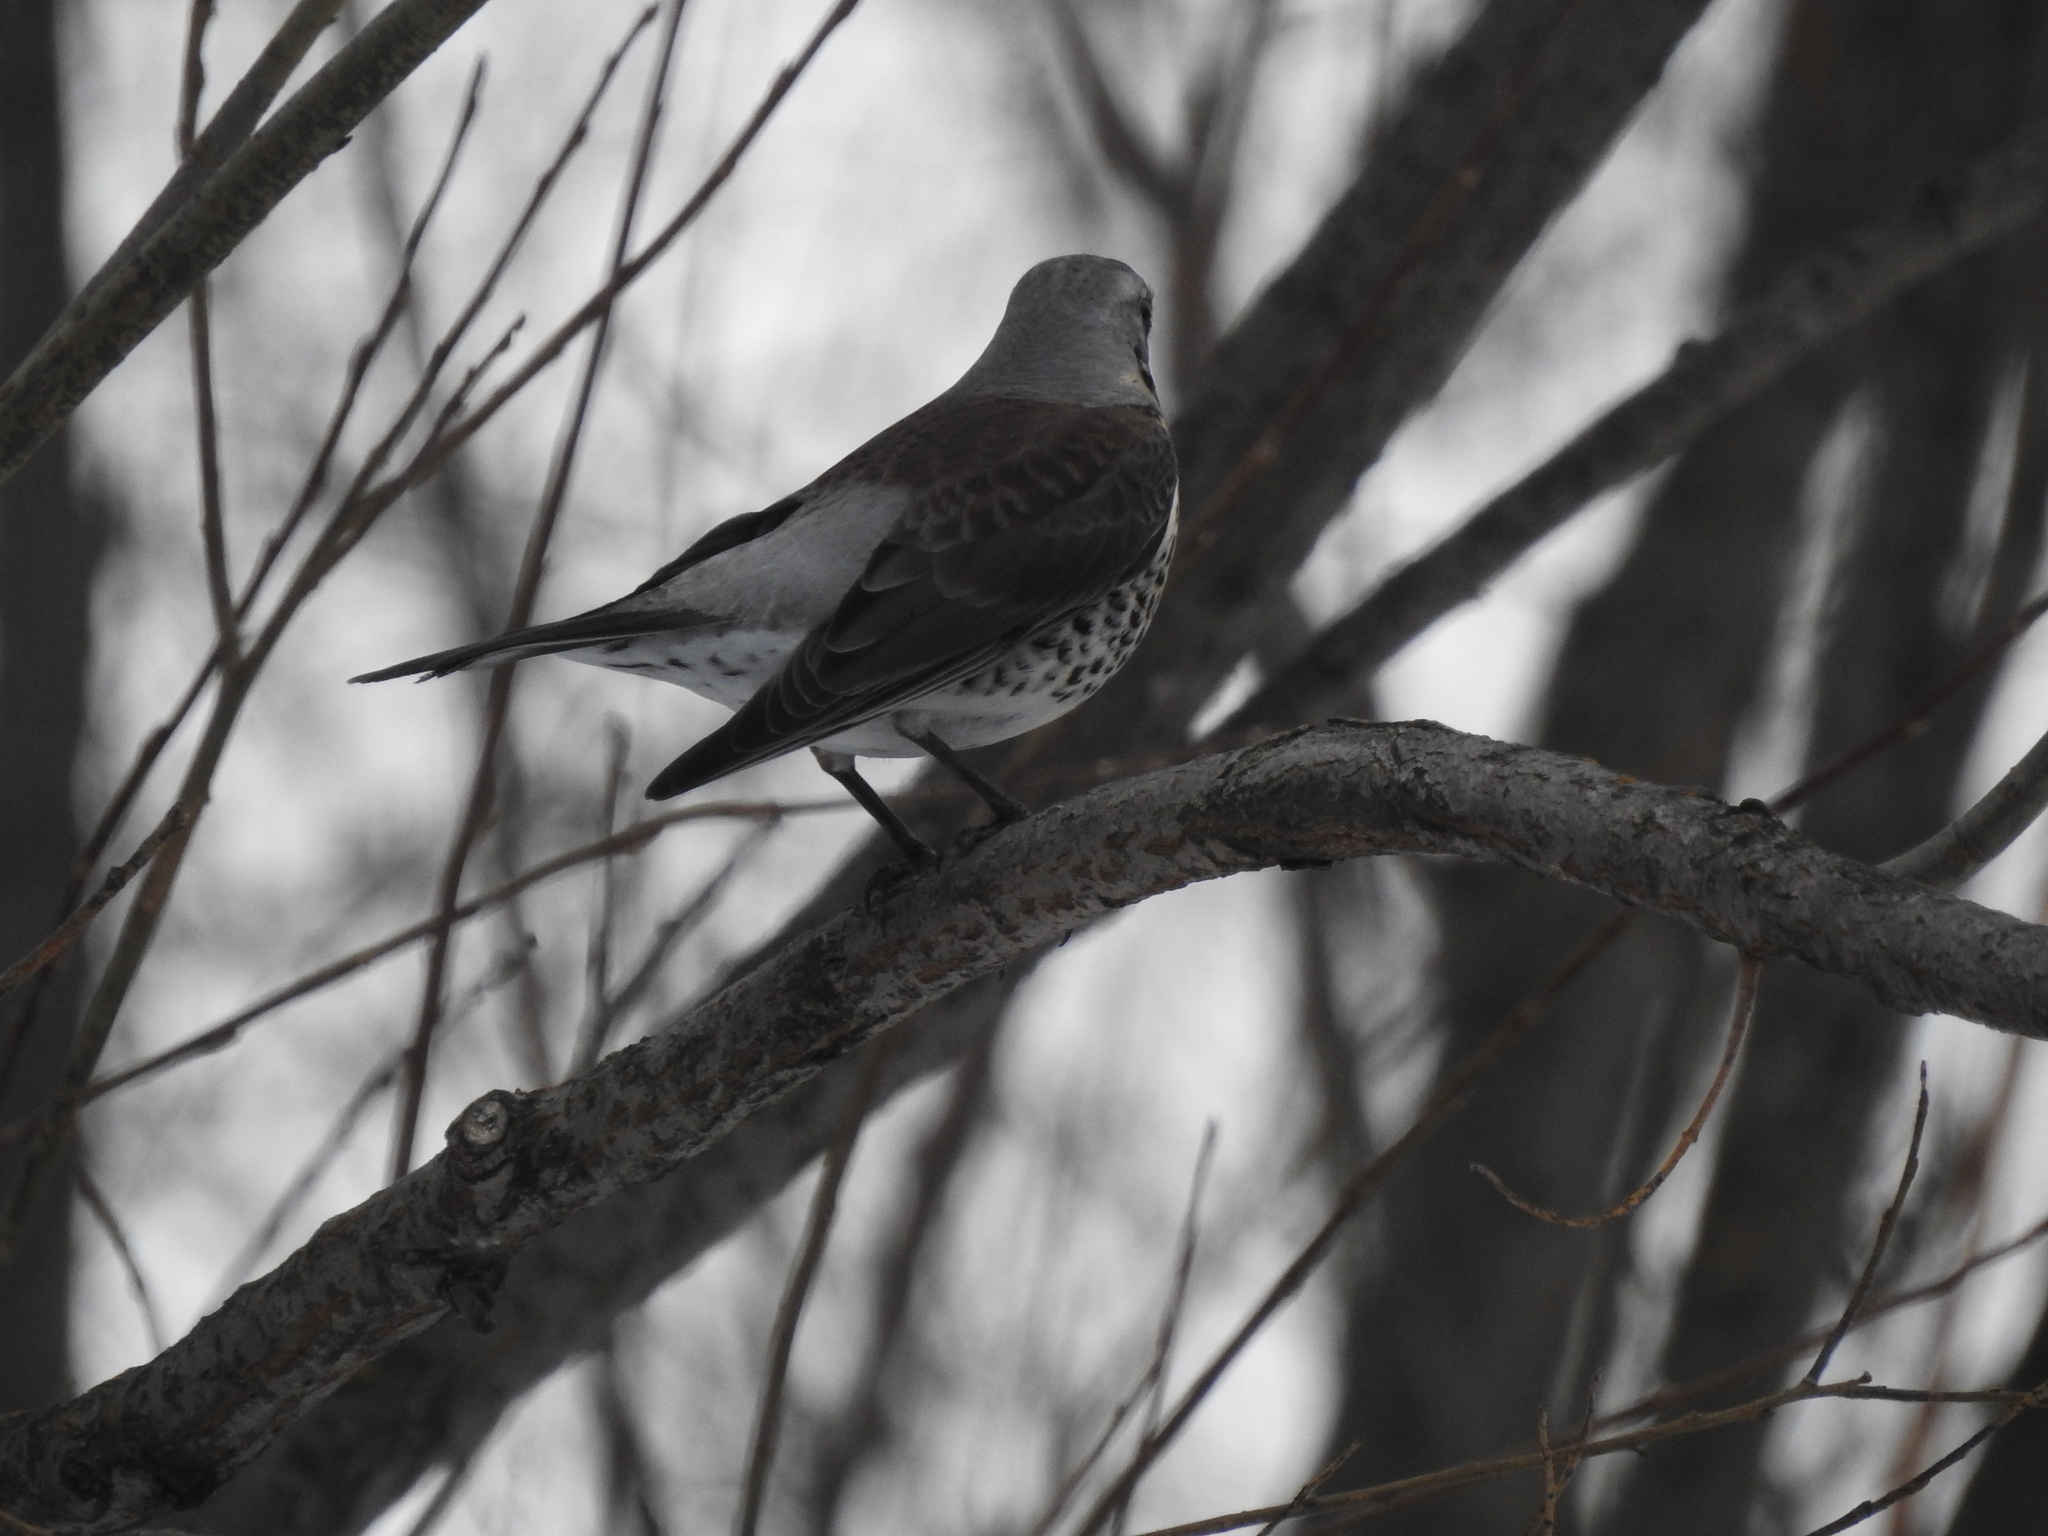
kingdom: Animalia
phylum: Chordata
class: Aves
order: Passeriformes
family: Turdidae
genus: Turdus
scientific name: Turdus pilaris
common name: Fieldfare
